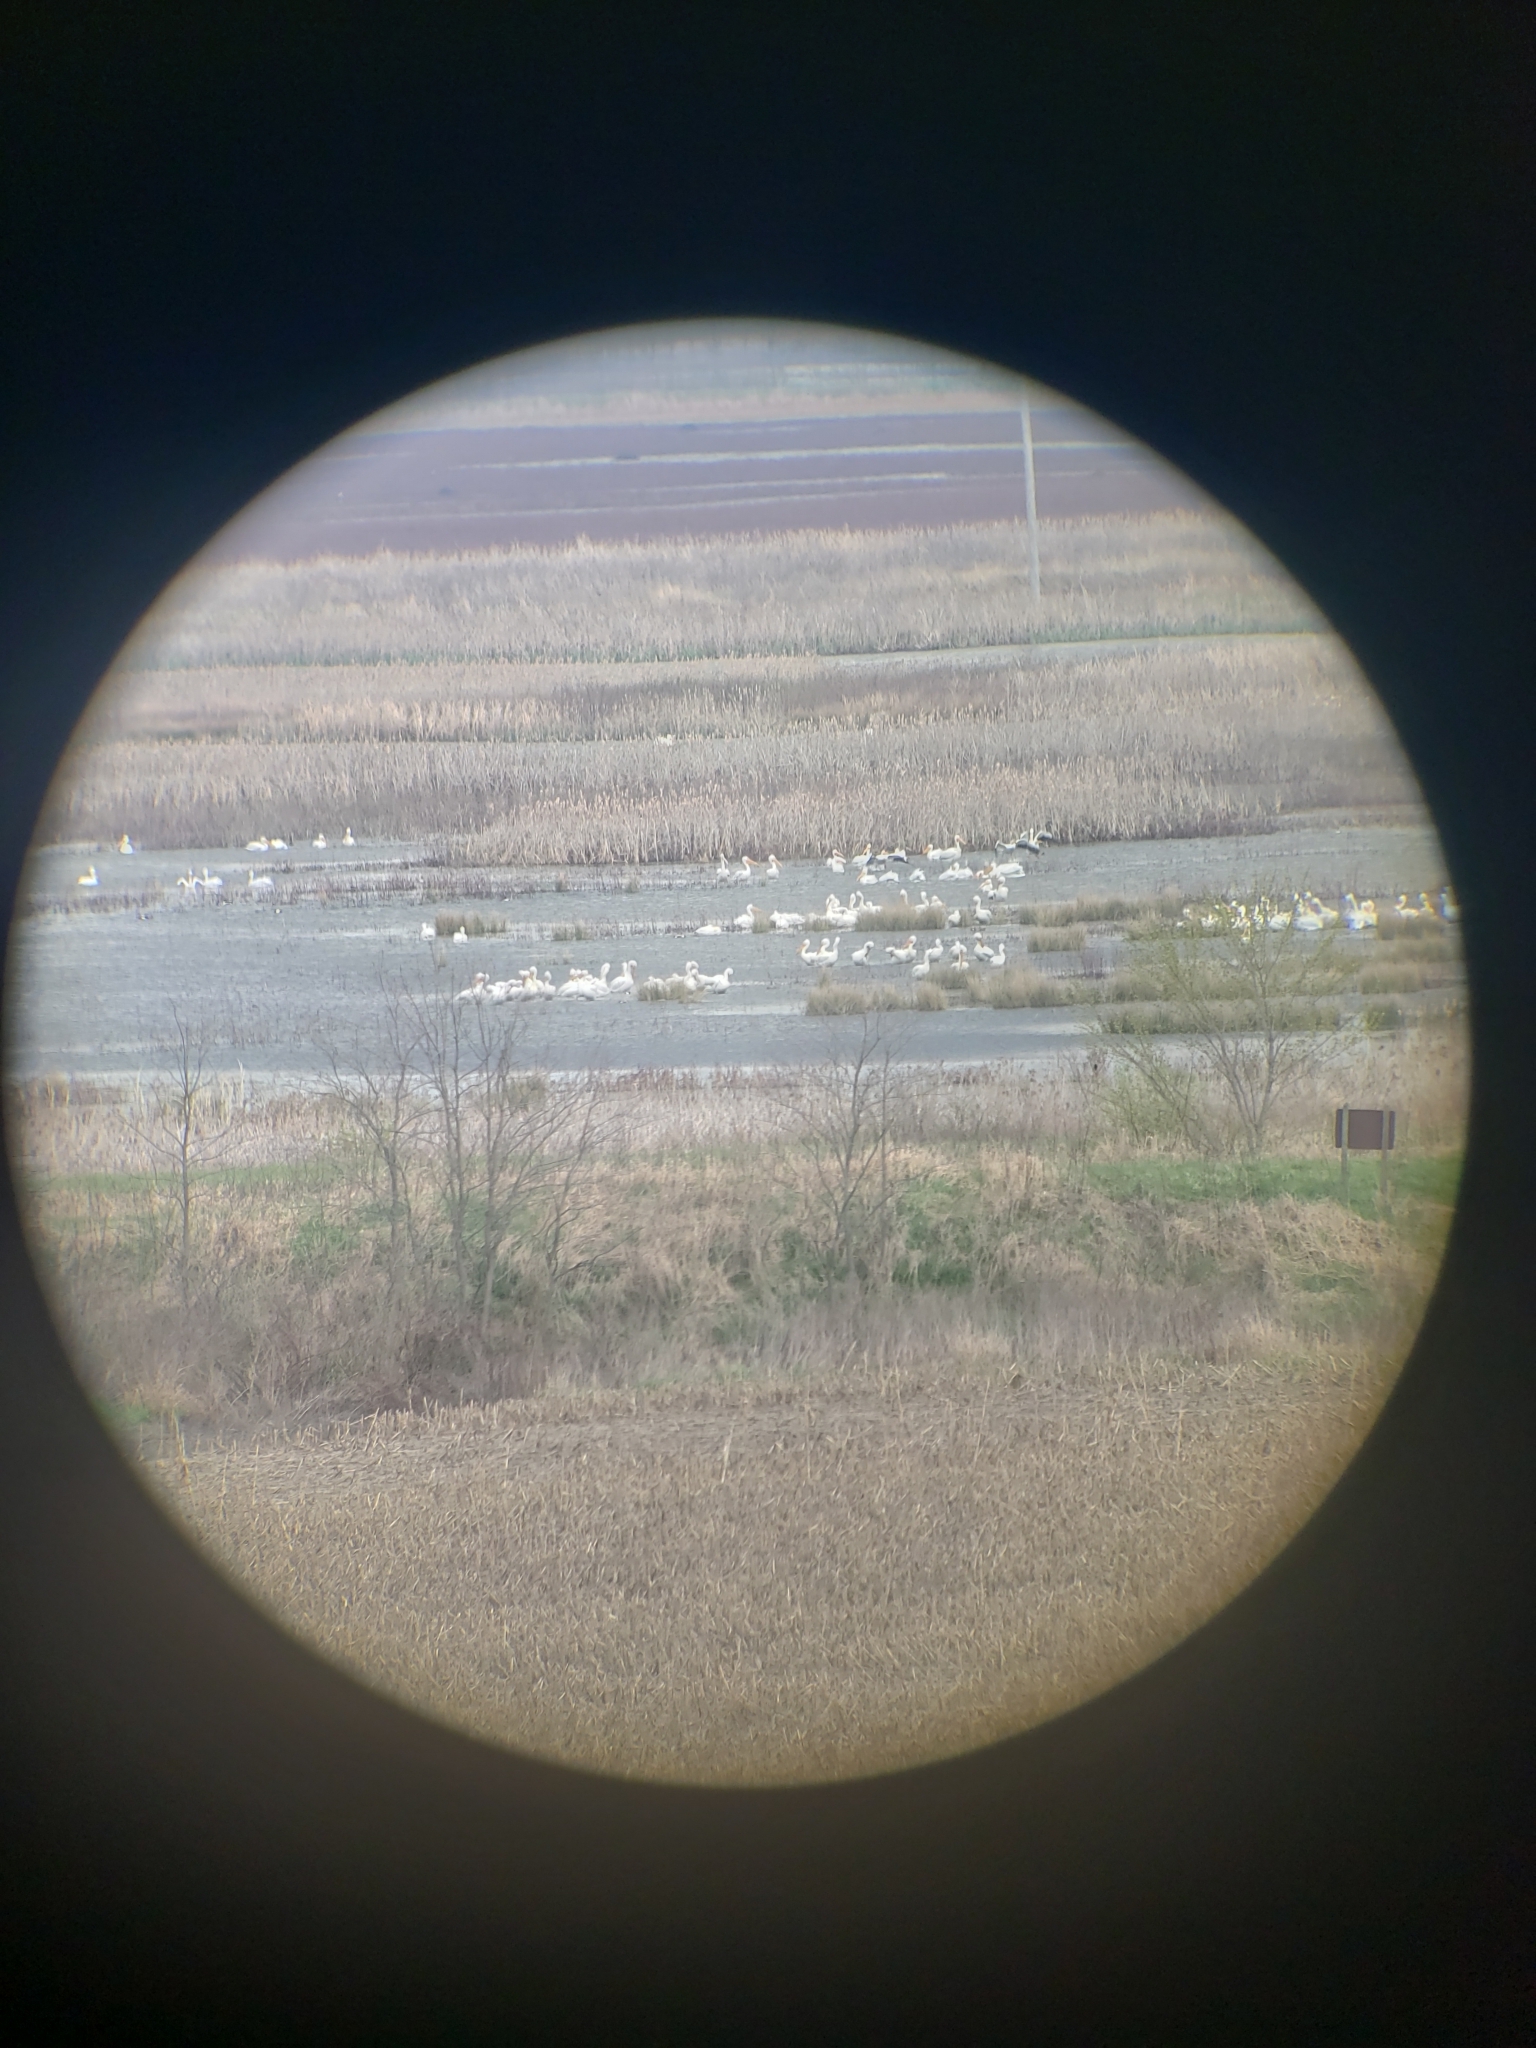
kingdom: Animalia
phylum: Chordata
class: Aves
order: Pelecaniformes
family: Pelecanidae
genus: Pelecanus
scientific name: Pelecanus erythrorhynchos
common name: American white pelican
